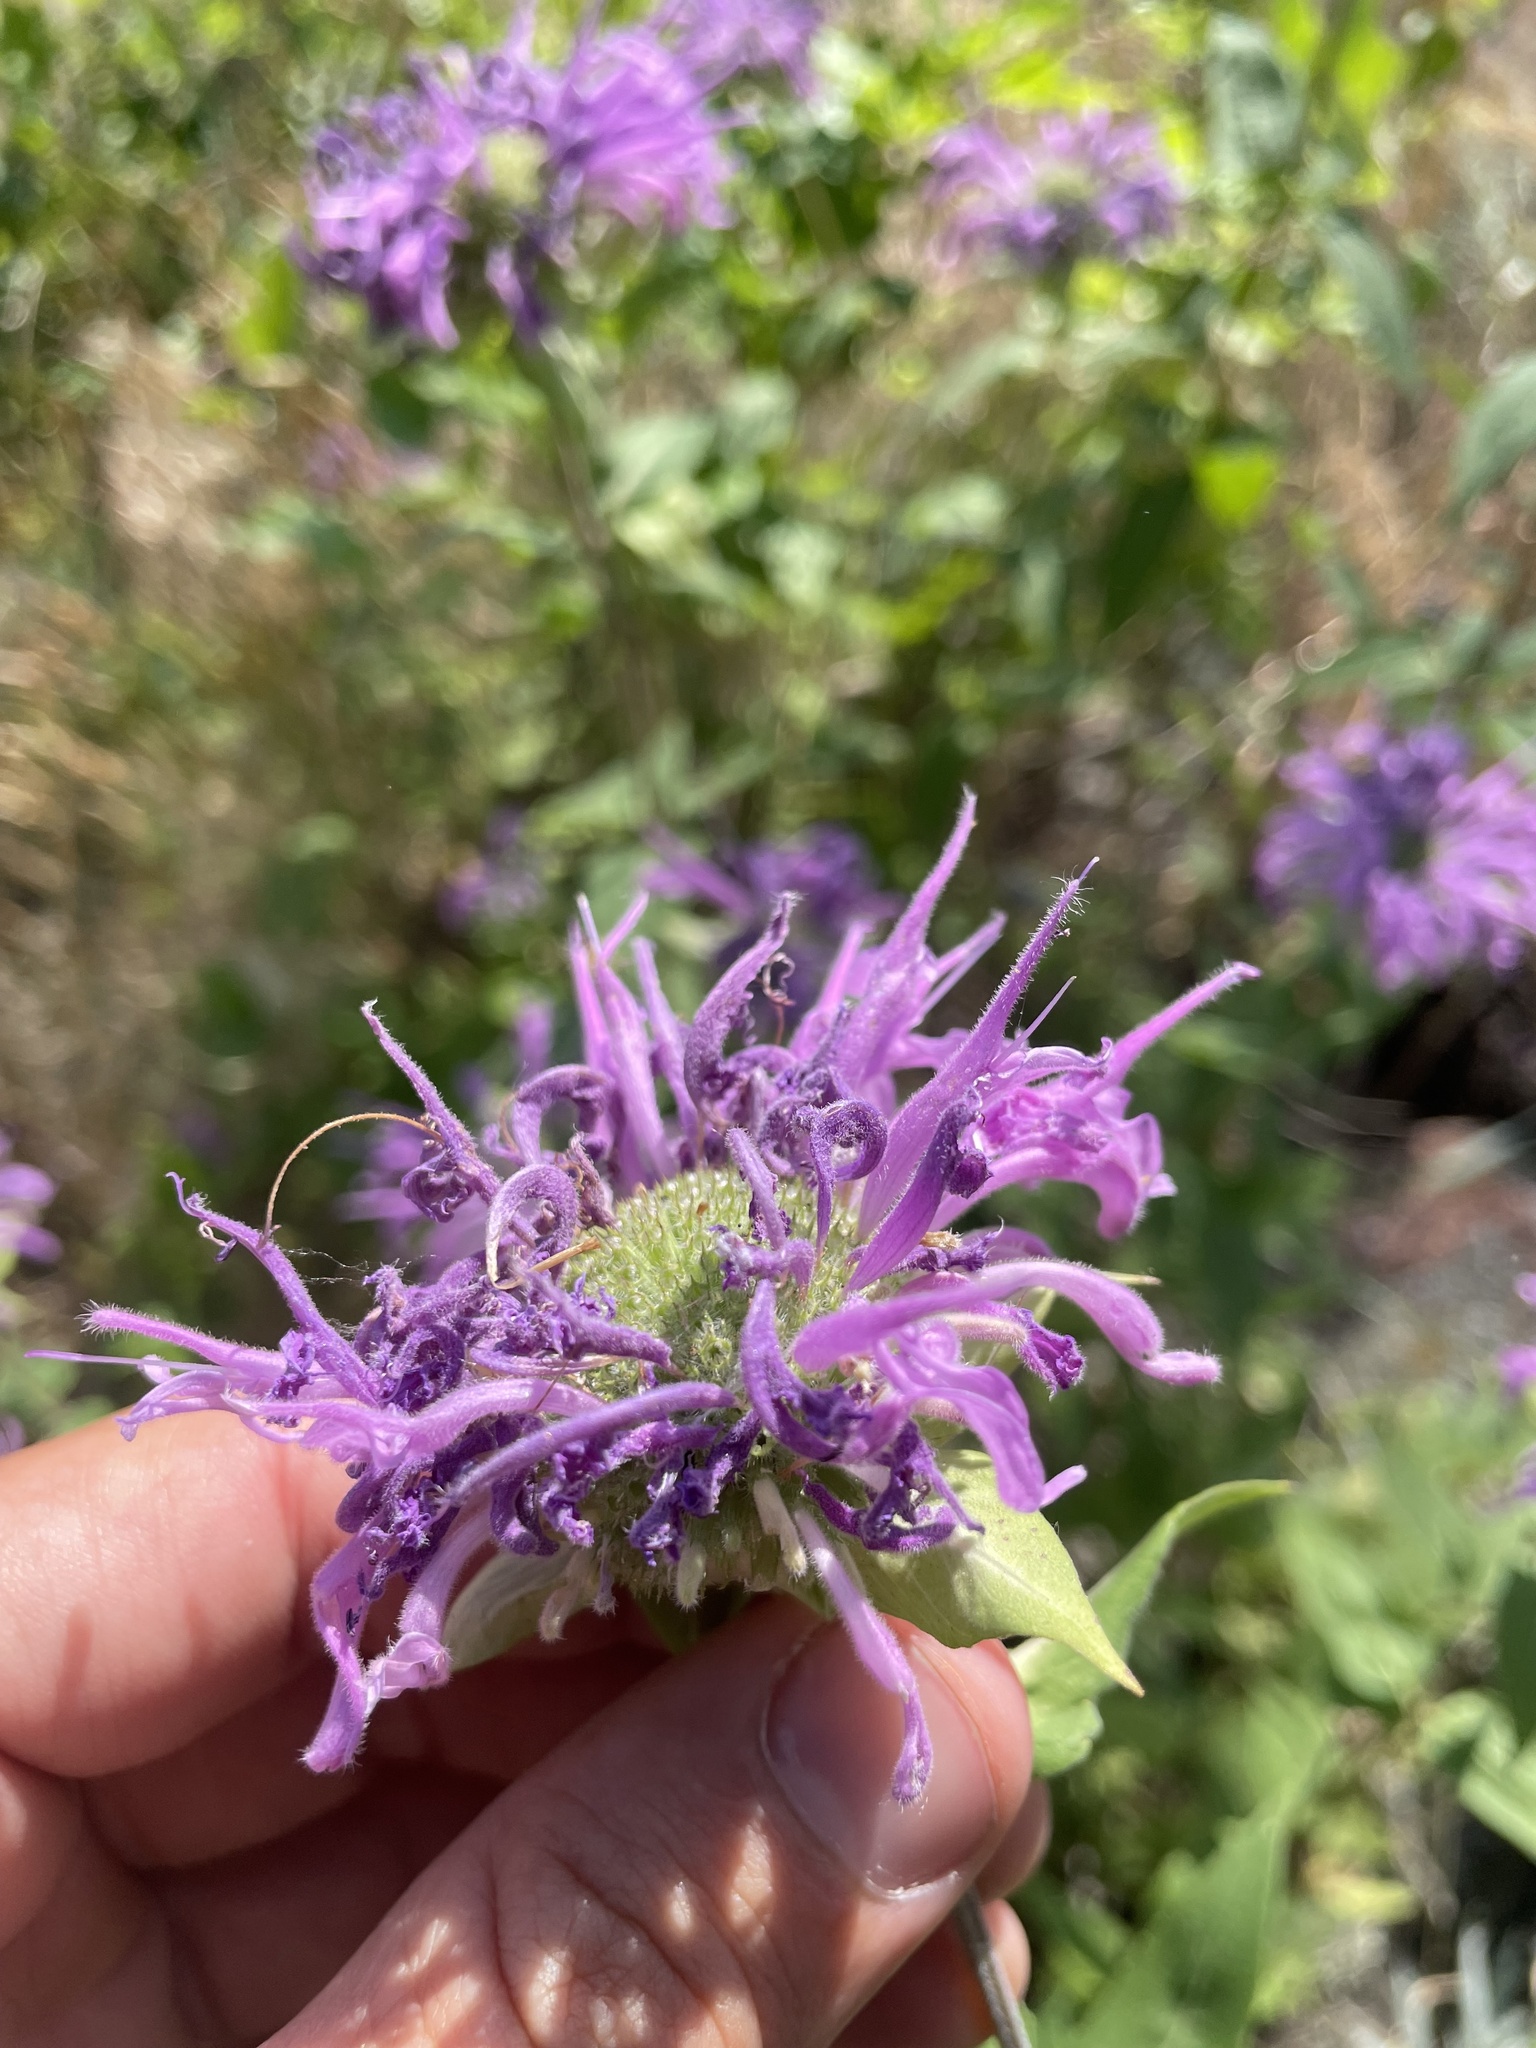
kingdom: Plantae
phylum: Tracheophyta
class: Magnoliopsida
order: Lamiales
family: Lamiaceae
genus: Monarda
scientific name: Monarda fistulosa
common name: Purple beebalm
